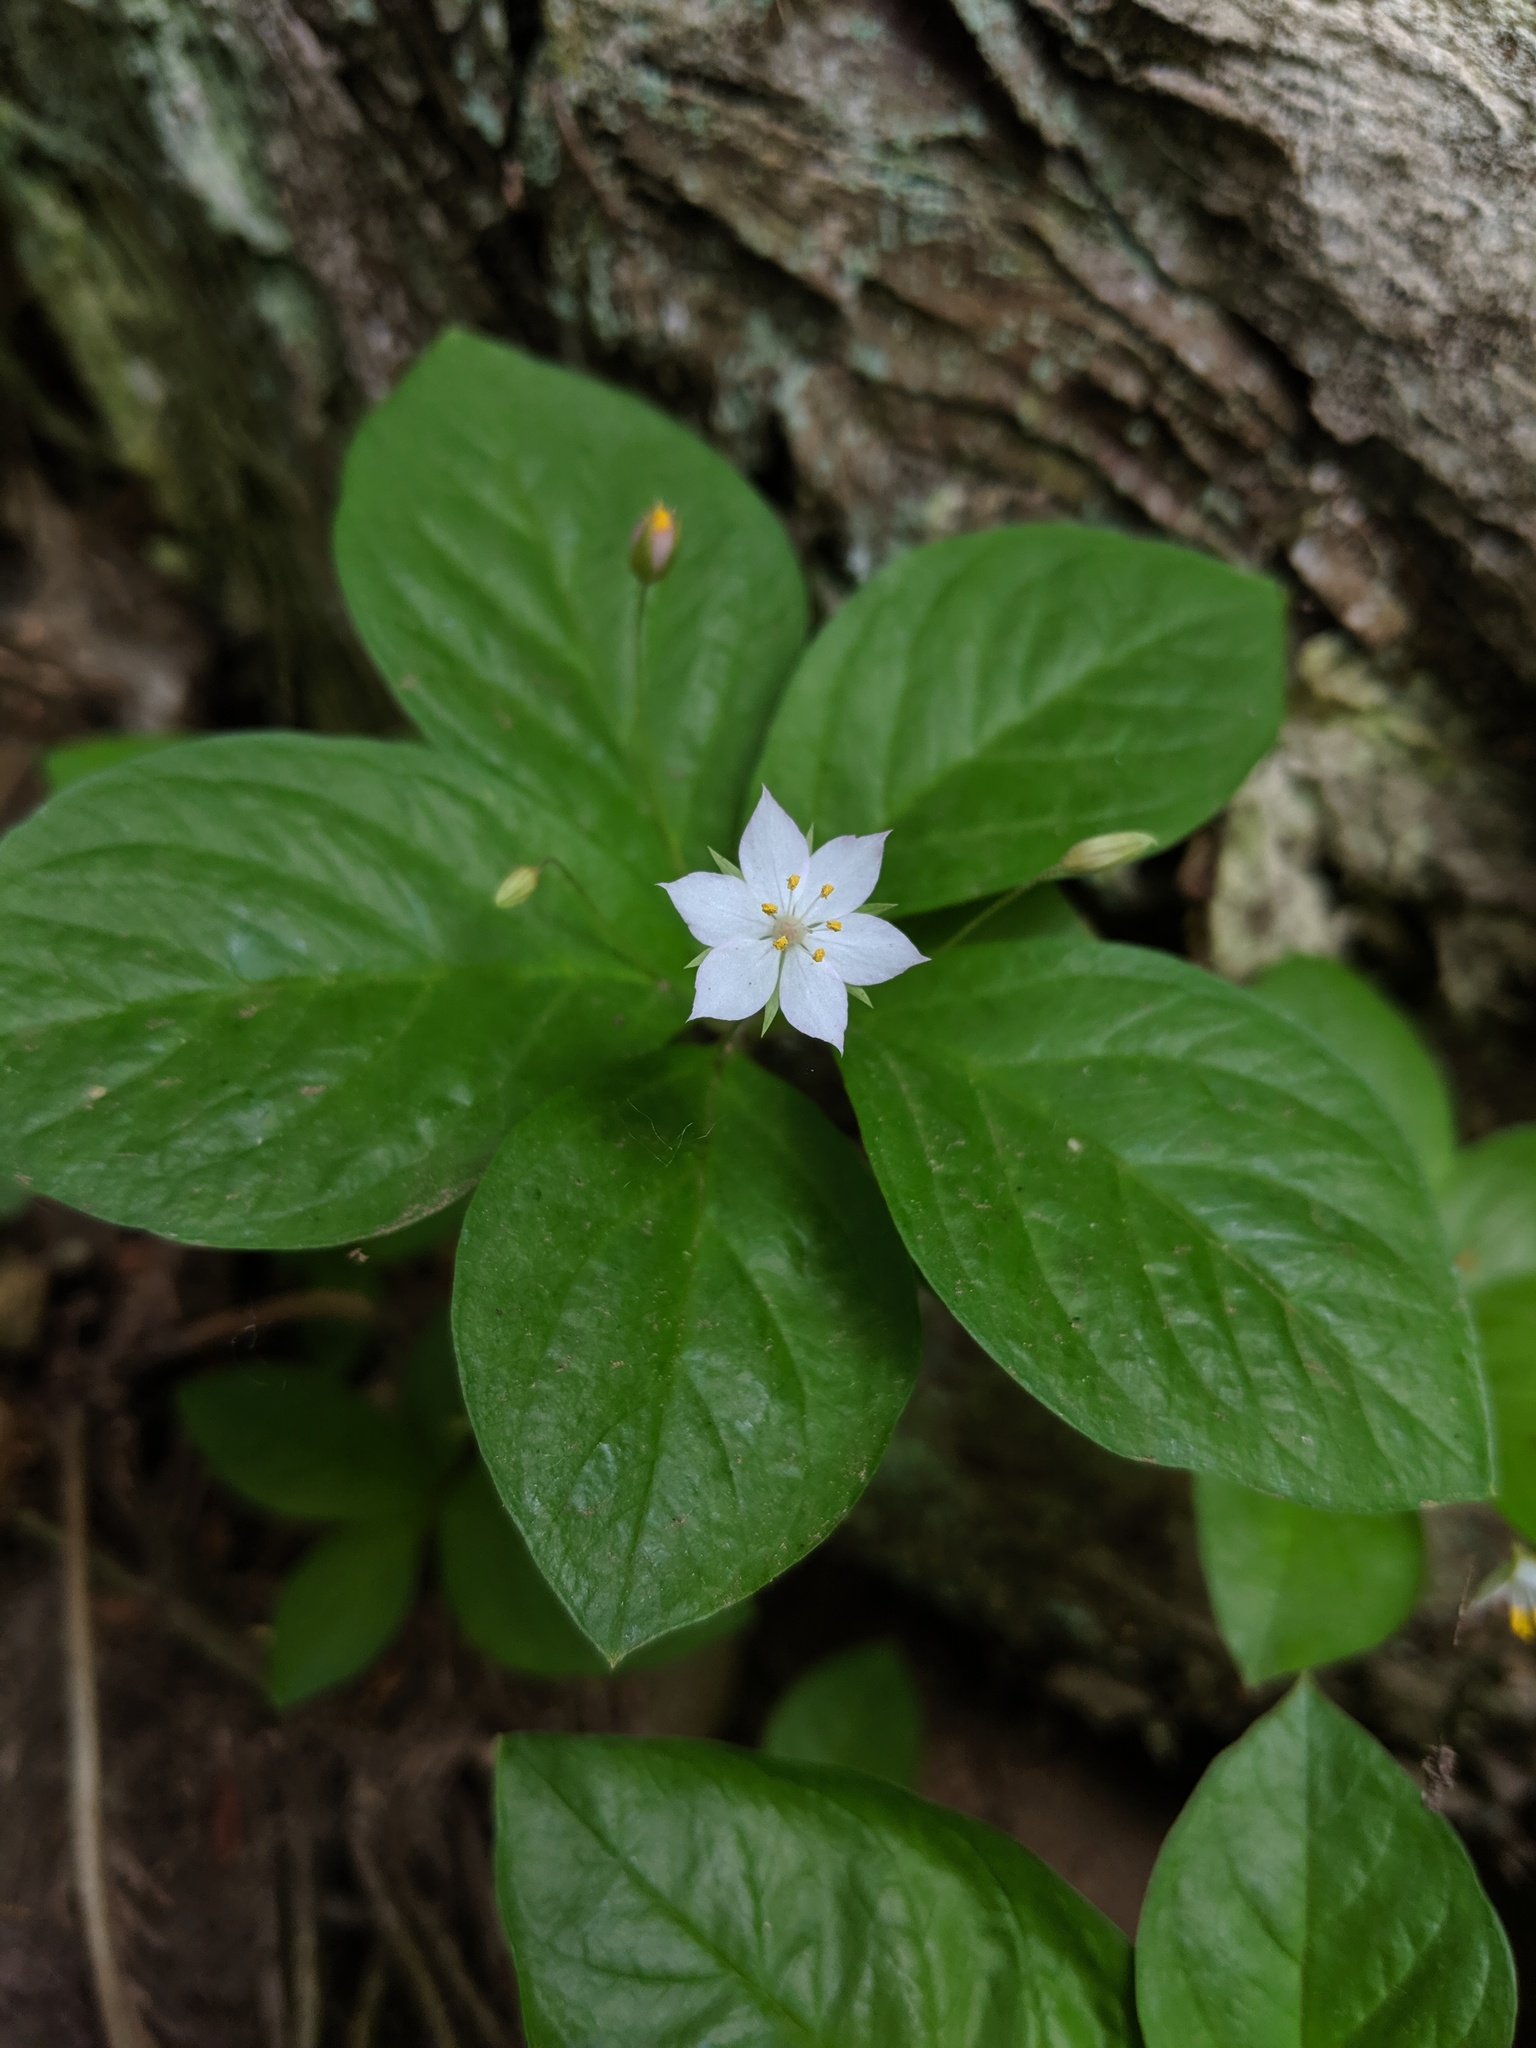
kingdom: Plantae
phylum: Tracheophyta
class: Magnoliopsida
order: Ericales
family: Primulaceae
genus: Lysimachia
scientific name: Lysimachia latifolia
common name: Pacific starflower
